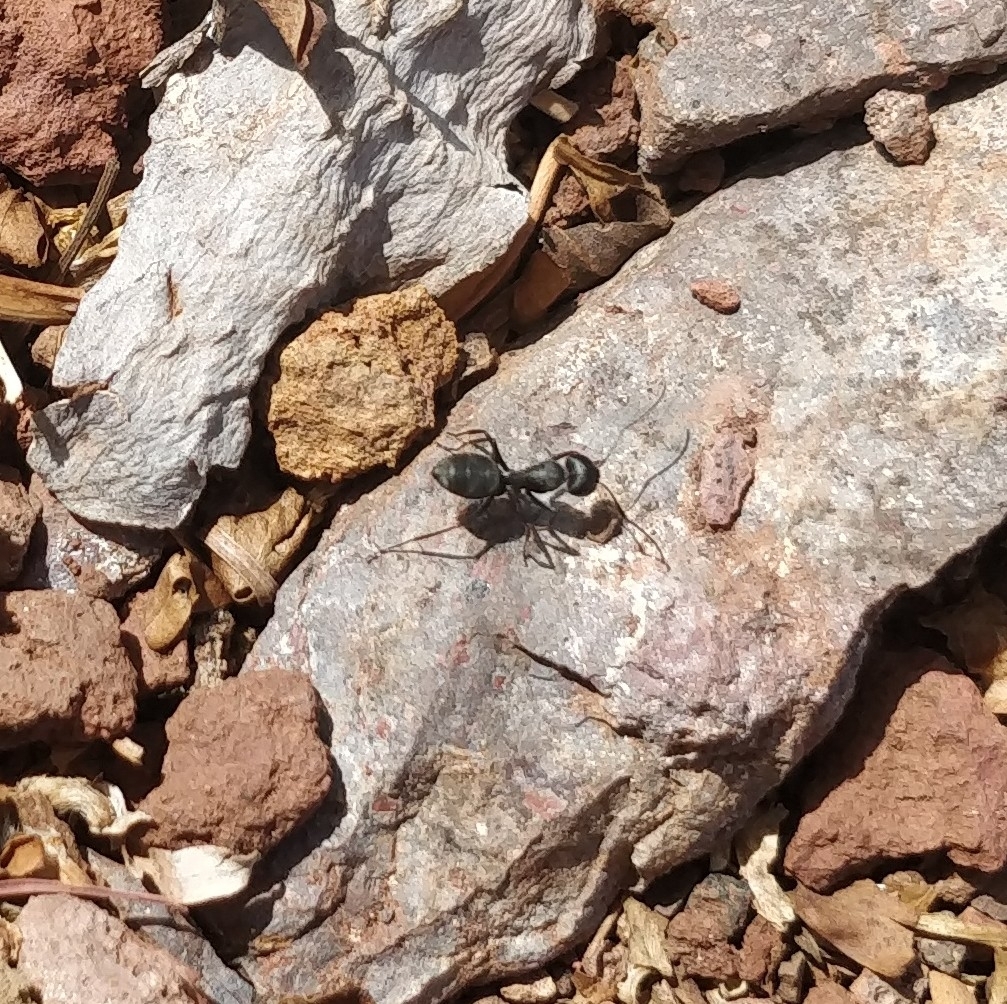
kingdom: Animalia
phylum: Arthropoda
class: Insecta
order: Hymenoptera
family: Formicidae
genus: Camponotus
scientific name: Camponotus feai
